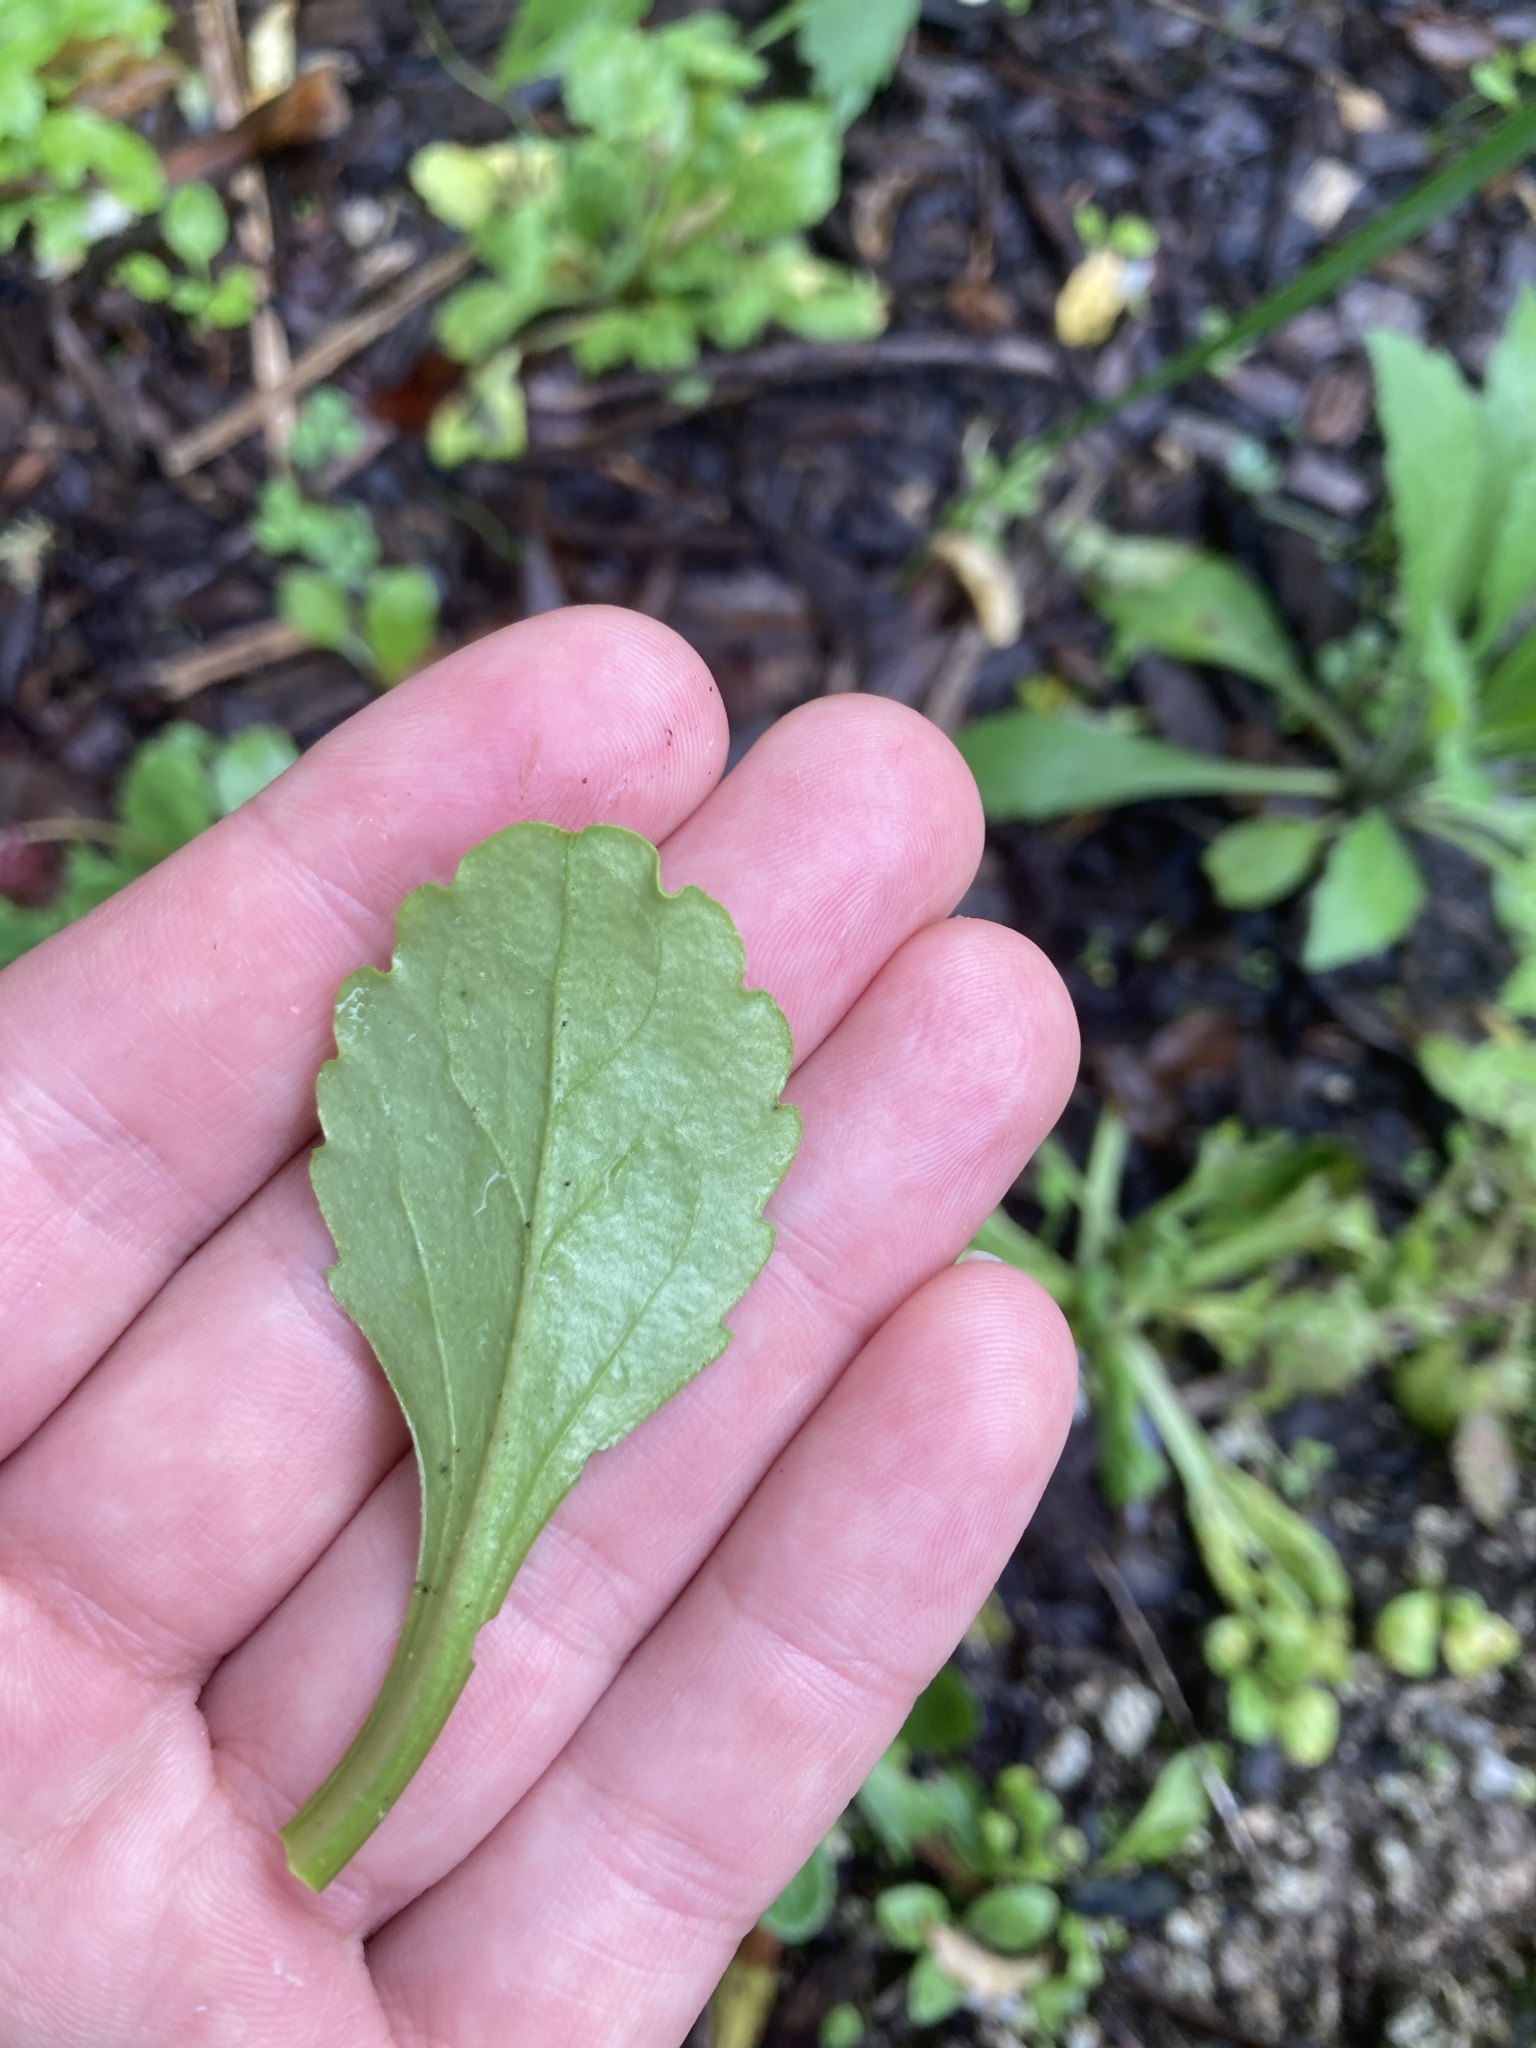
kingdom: Plantae
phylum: Tracheophyta
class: Magnoliopsida
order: Asterales
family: Asteraceae
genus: Bellis
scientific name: Bellis perennis
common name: Lawndaisy
